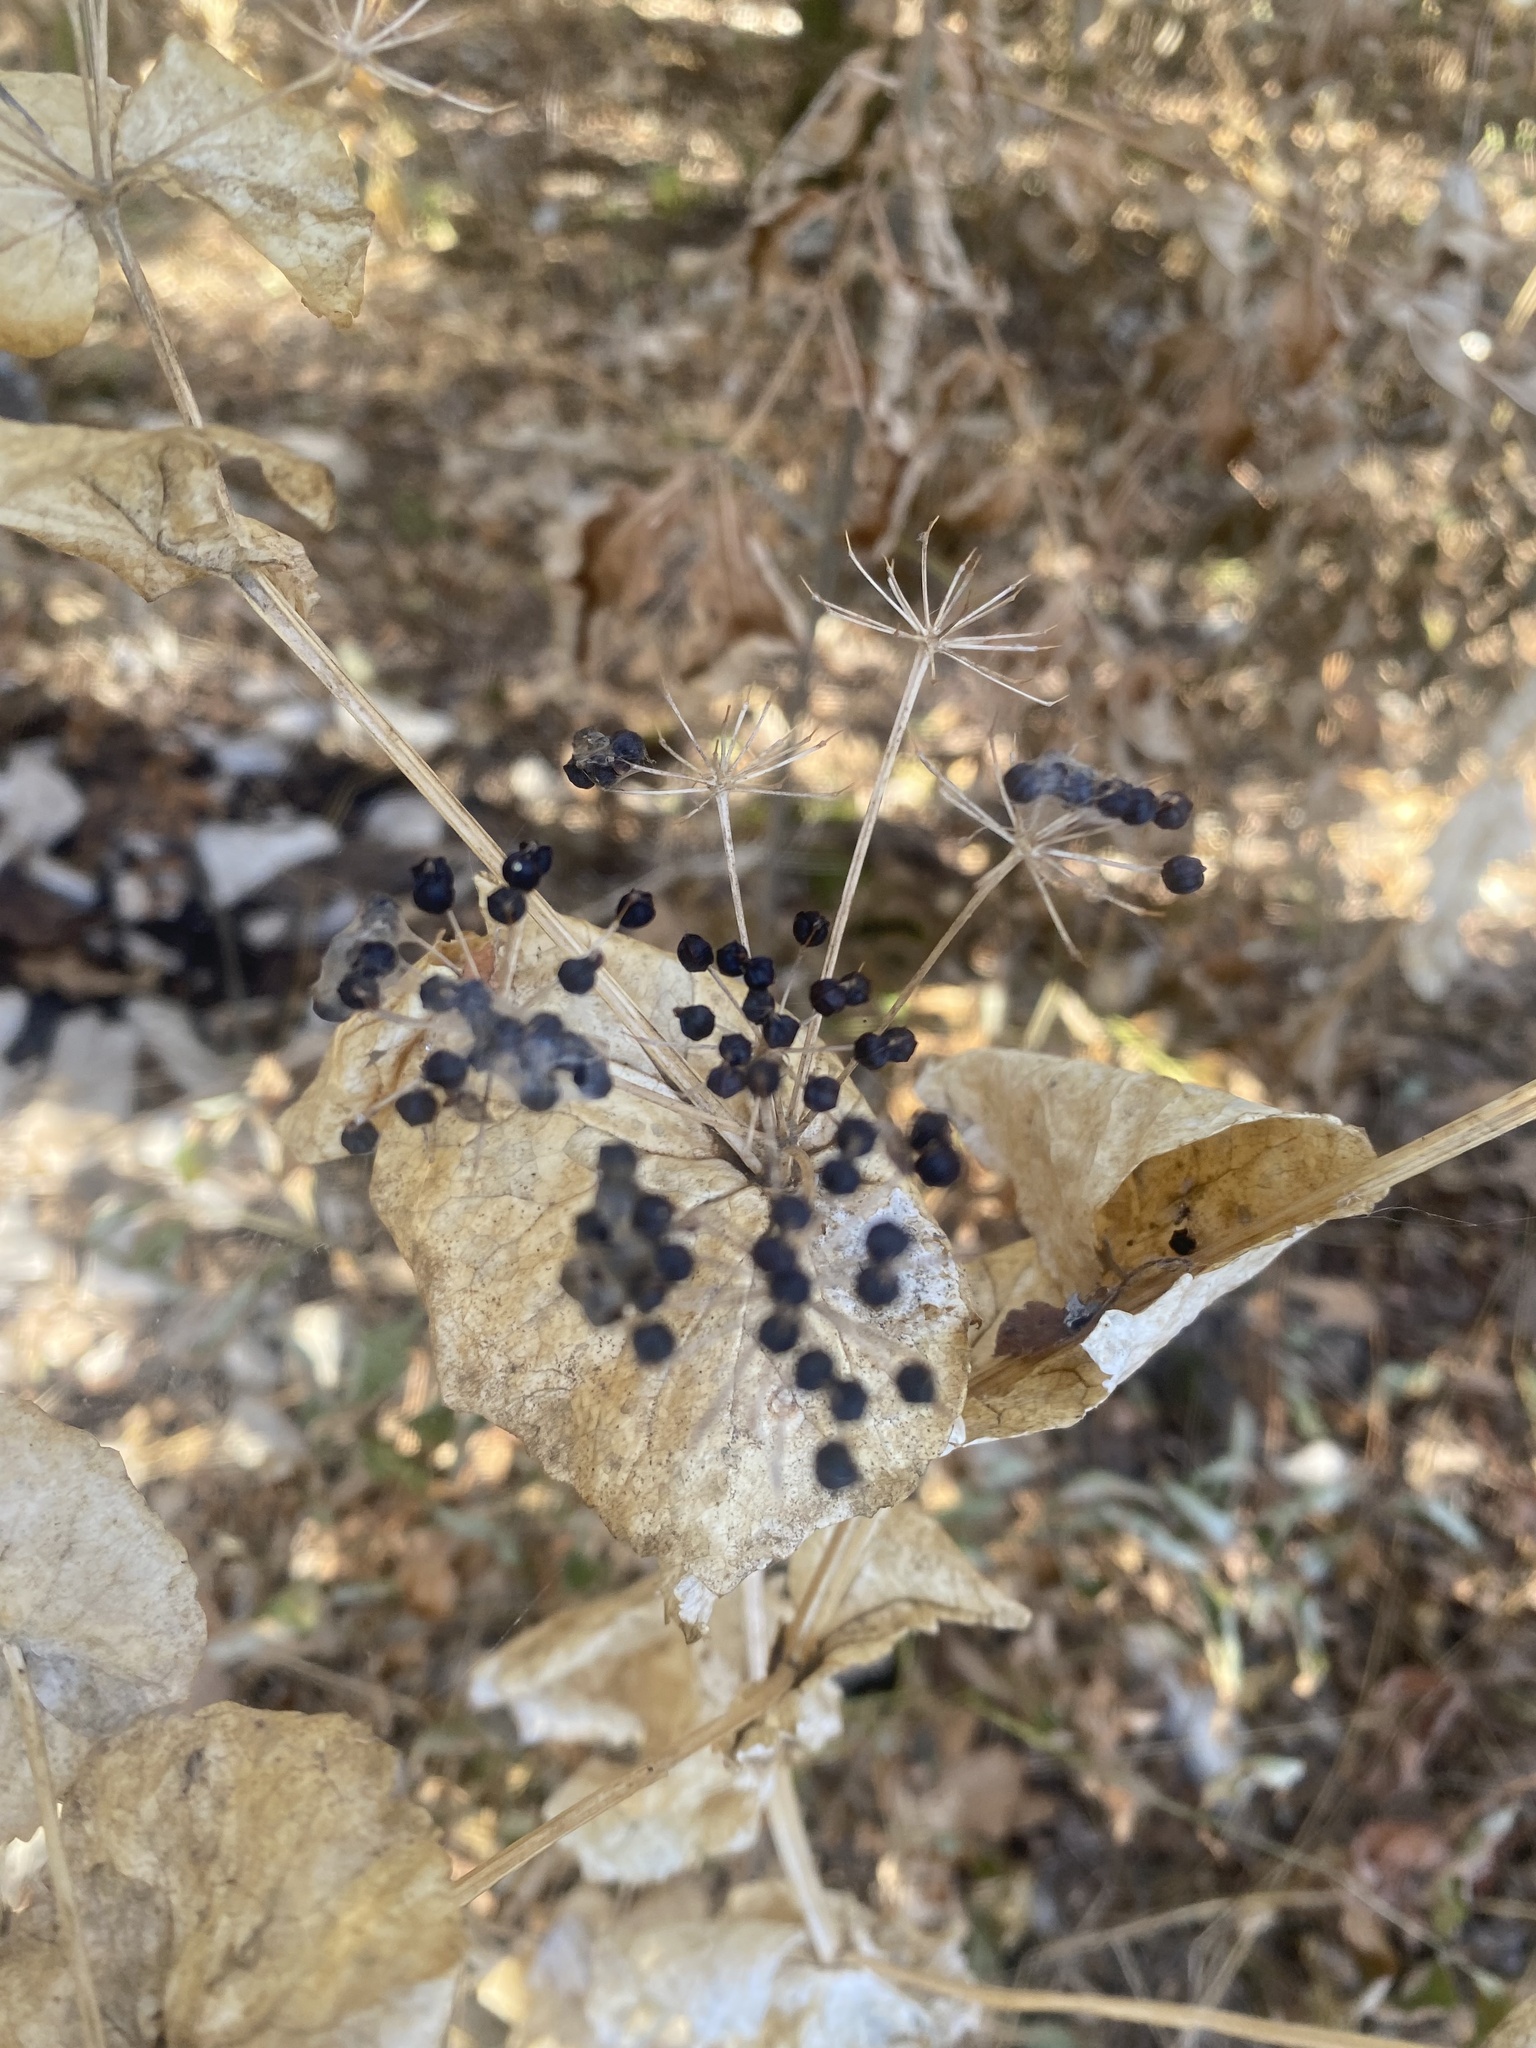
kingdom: Plantae
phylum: Tracheophyta
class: Magnoliopsida
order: Apiales
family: Apiaceae
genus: Smyrnium
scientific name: Smyrnium perfoliatum
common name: Perfoliate alexanders
